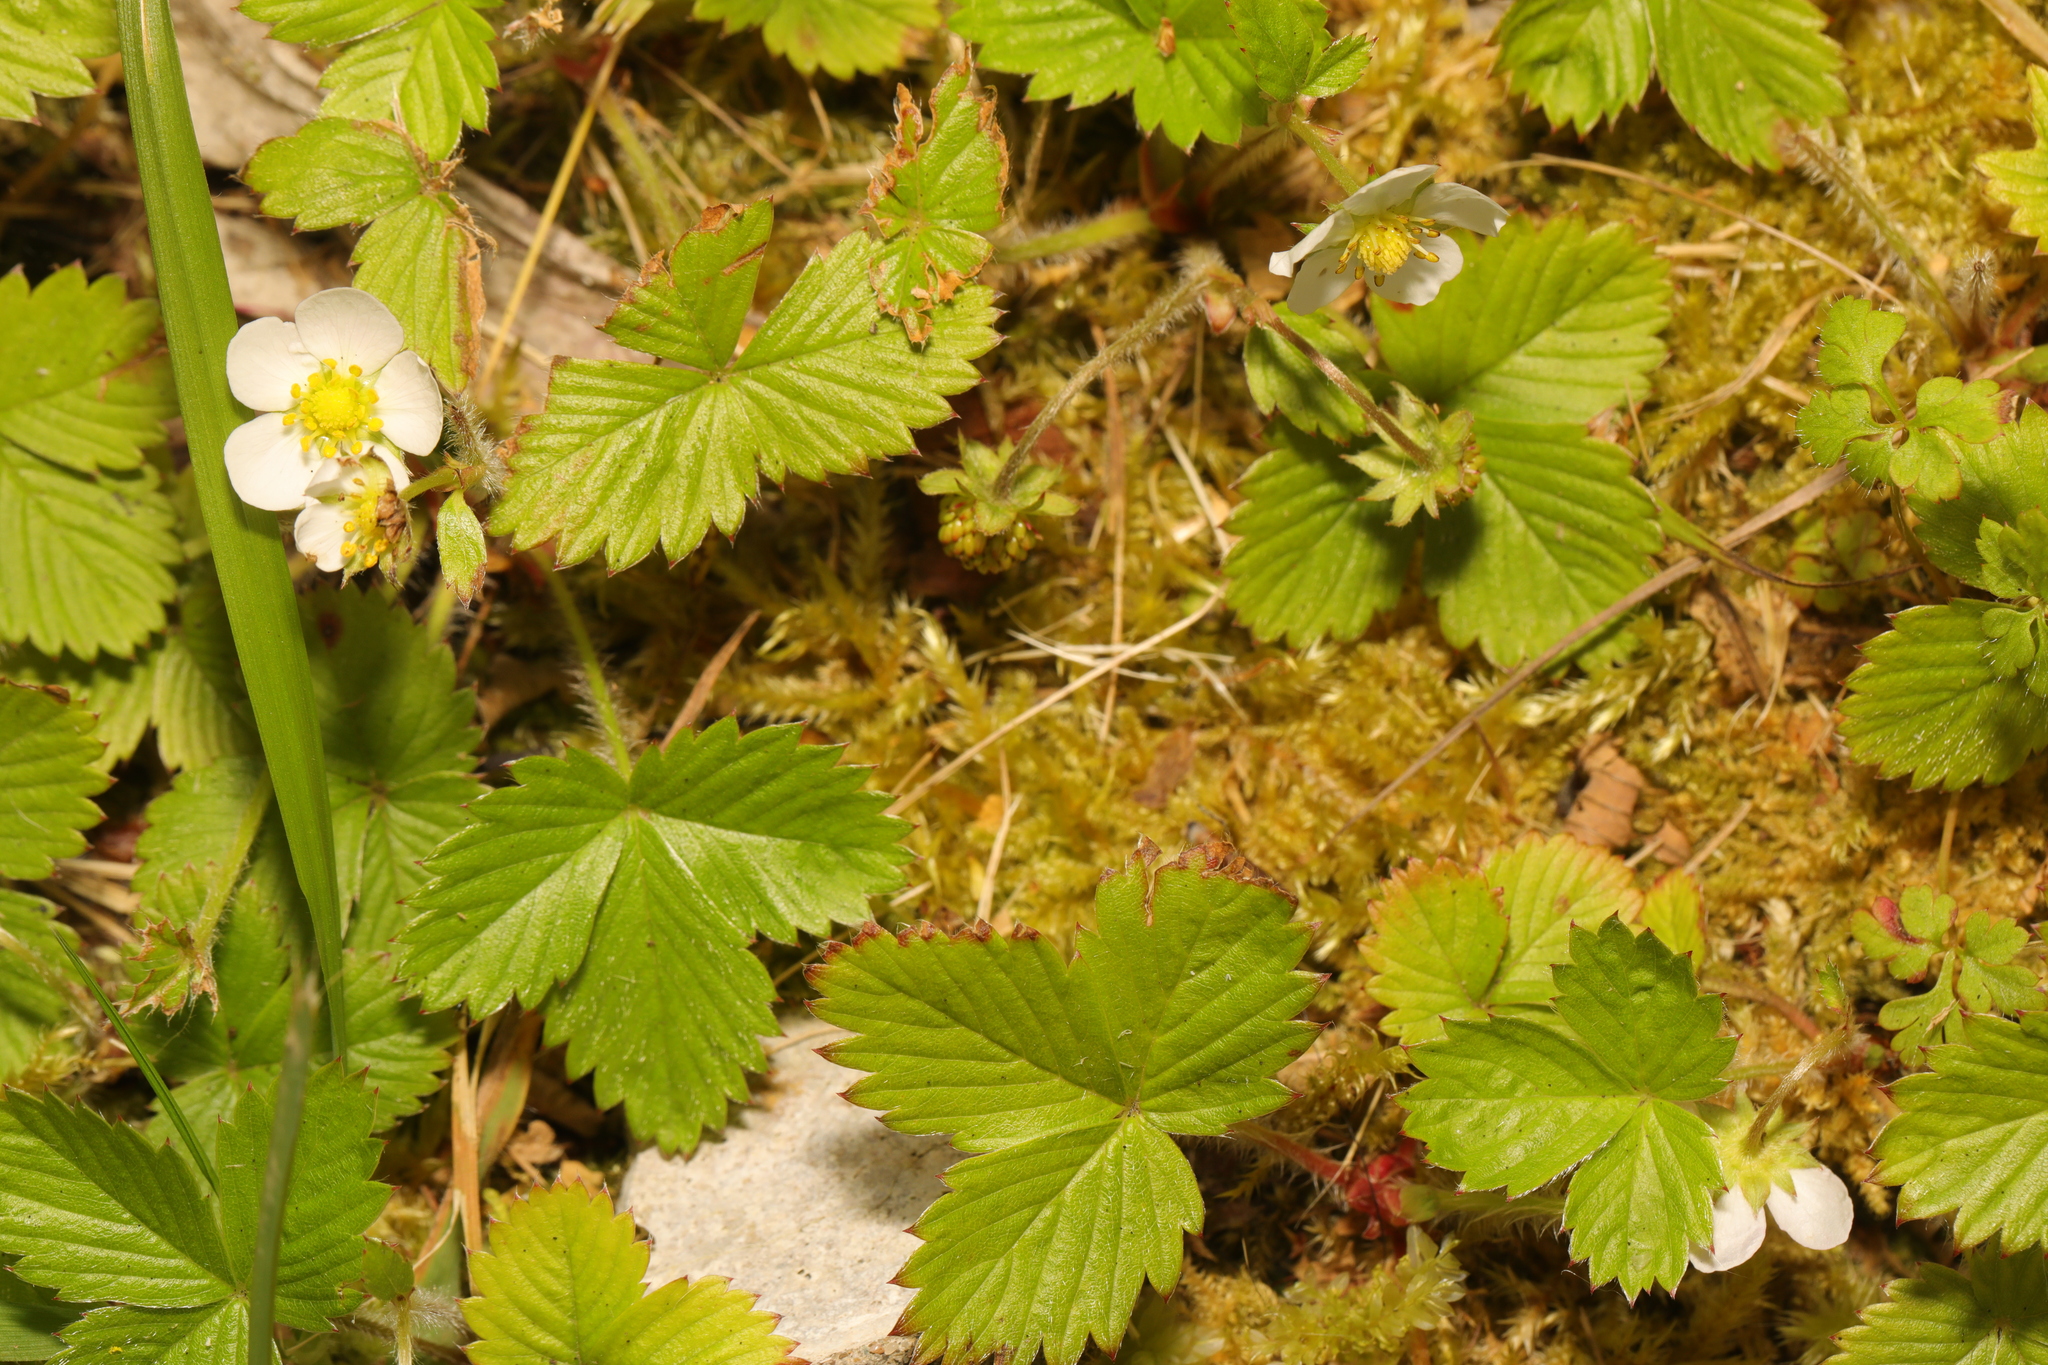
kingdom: Plantae
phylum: Tracheophyta
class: Magnoliopsida
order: Rosales
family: Rosaceae
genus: Fragaria
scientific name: Fragaria vesca
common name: Wild strawberry
